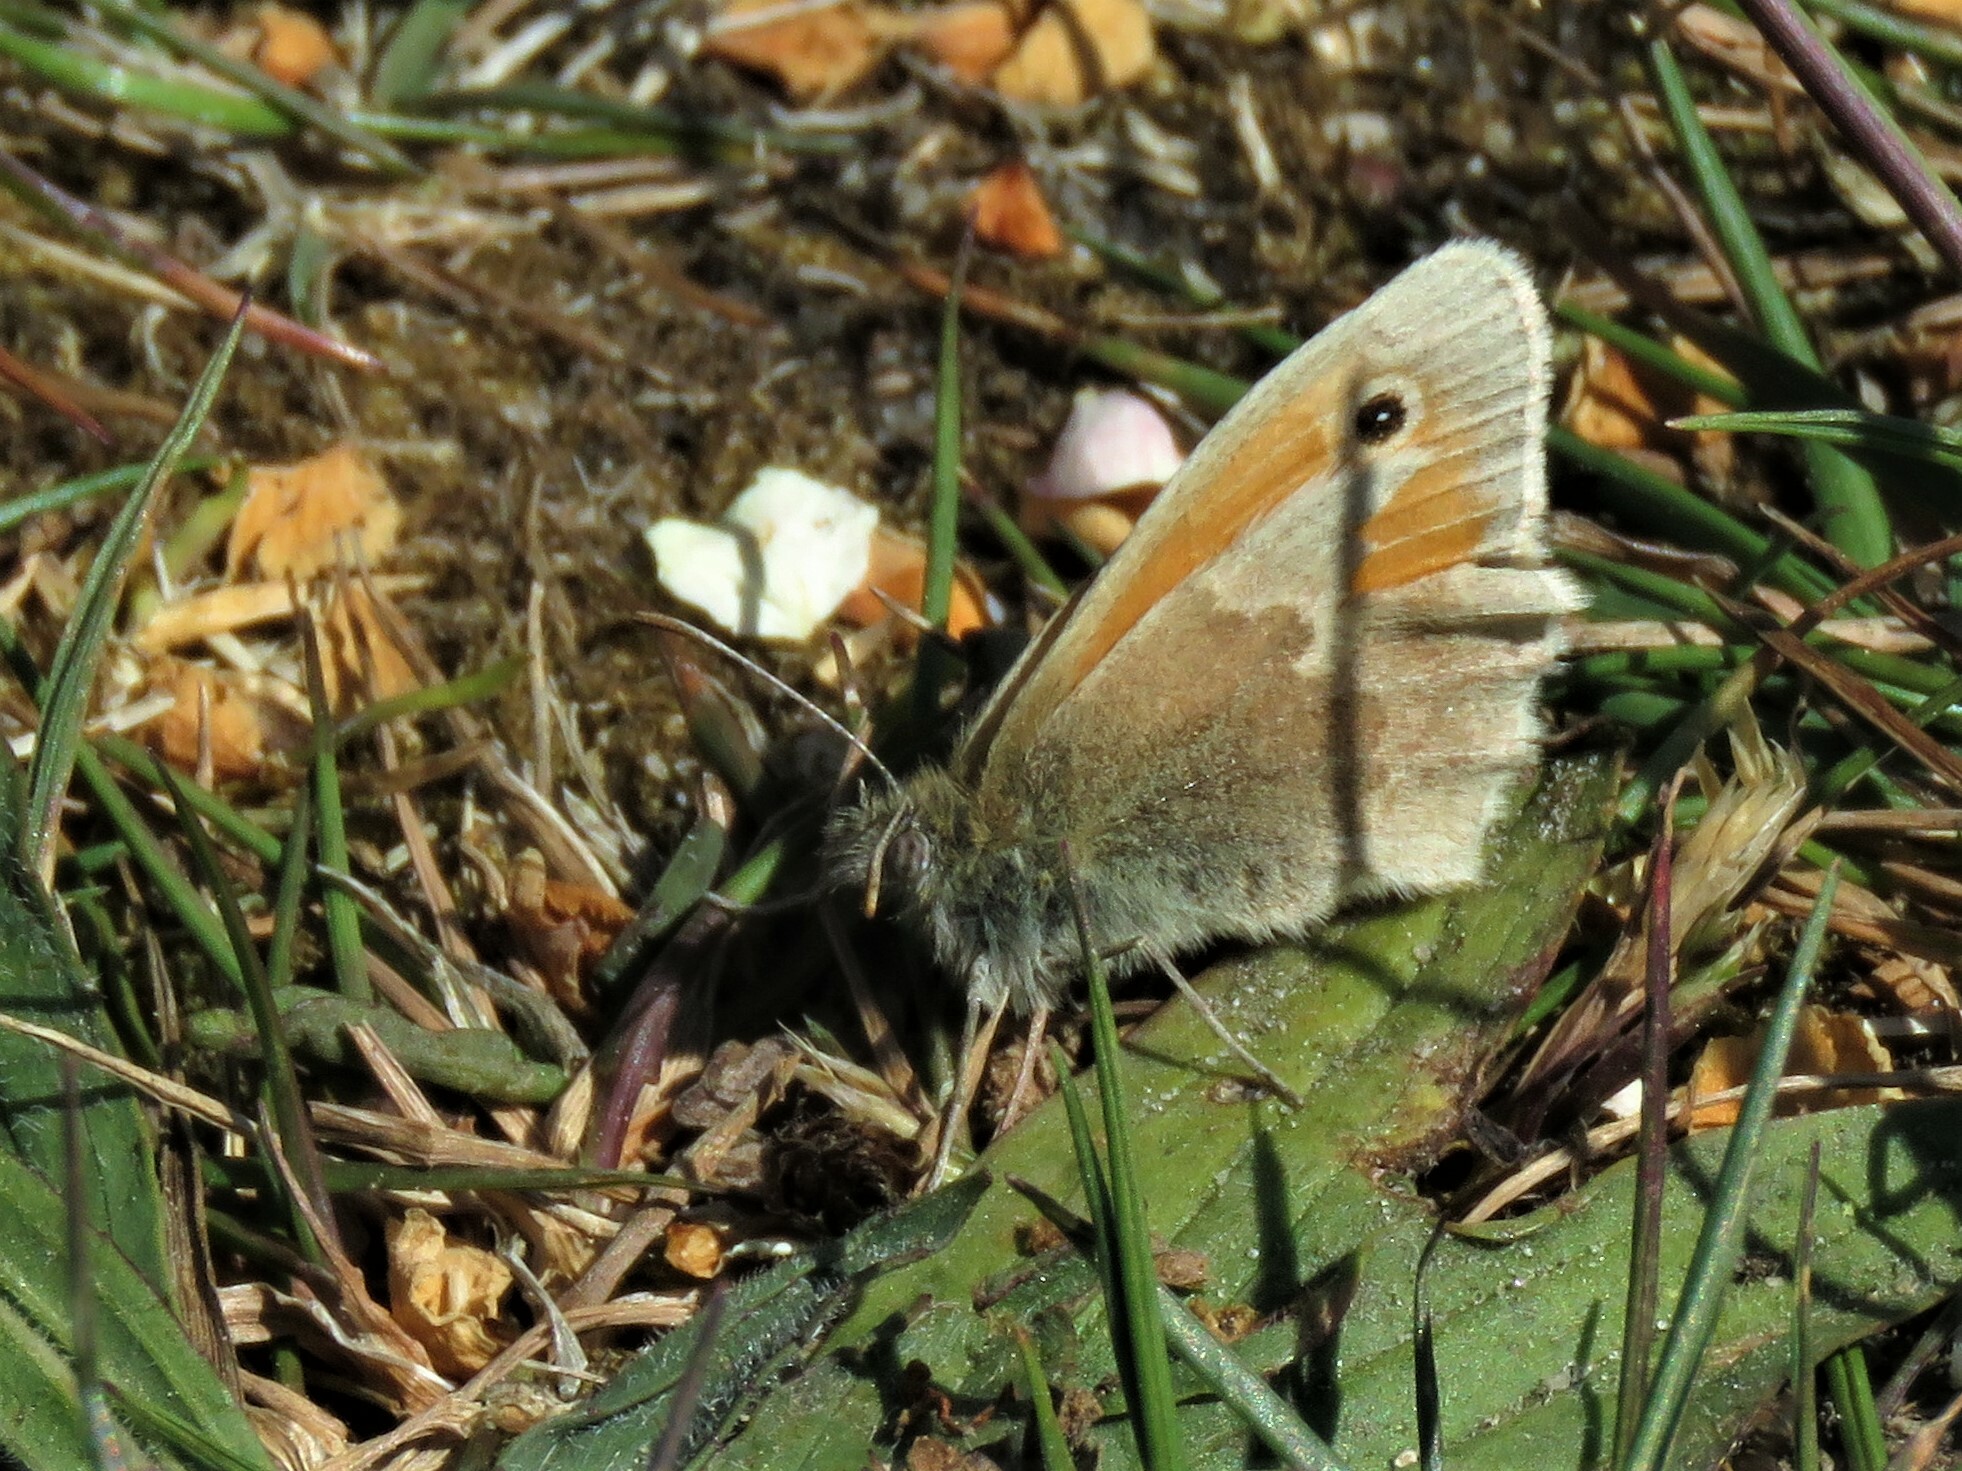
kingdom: Animalia
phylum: Arthropoda
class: Insecta
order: Lepidoptera
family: Nymphalidae
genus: Coenonympha
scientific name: Coenonympha pamphilus
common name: Small heath
